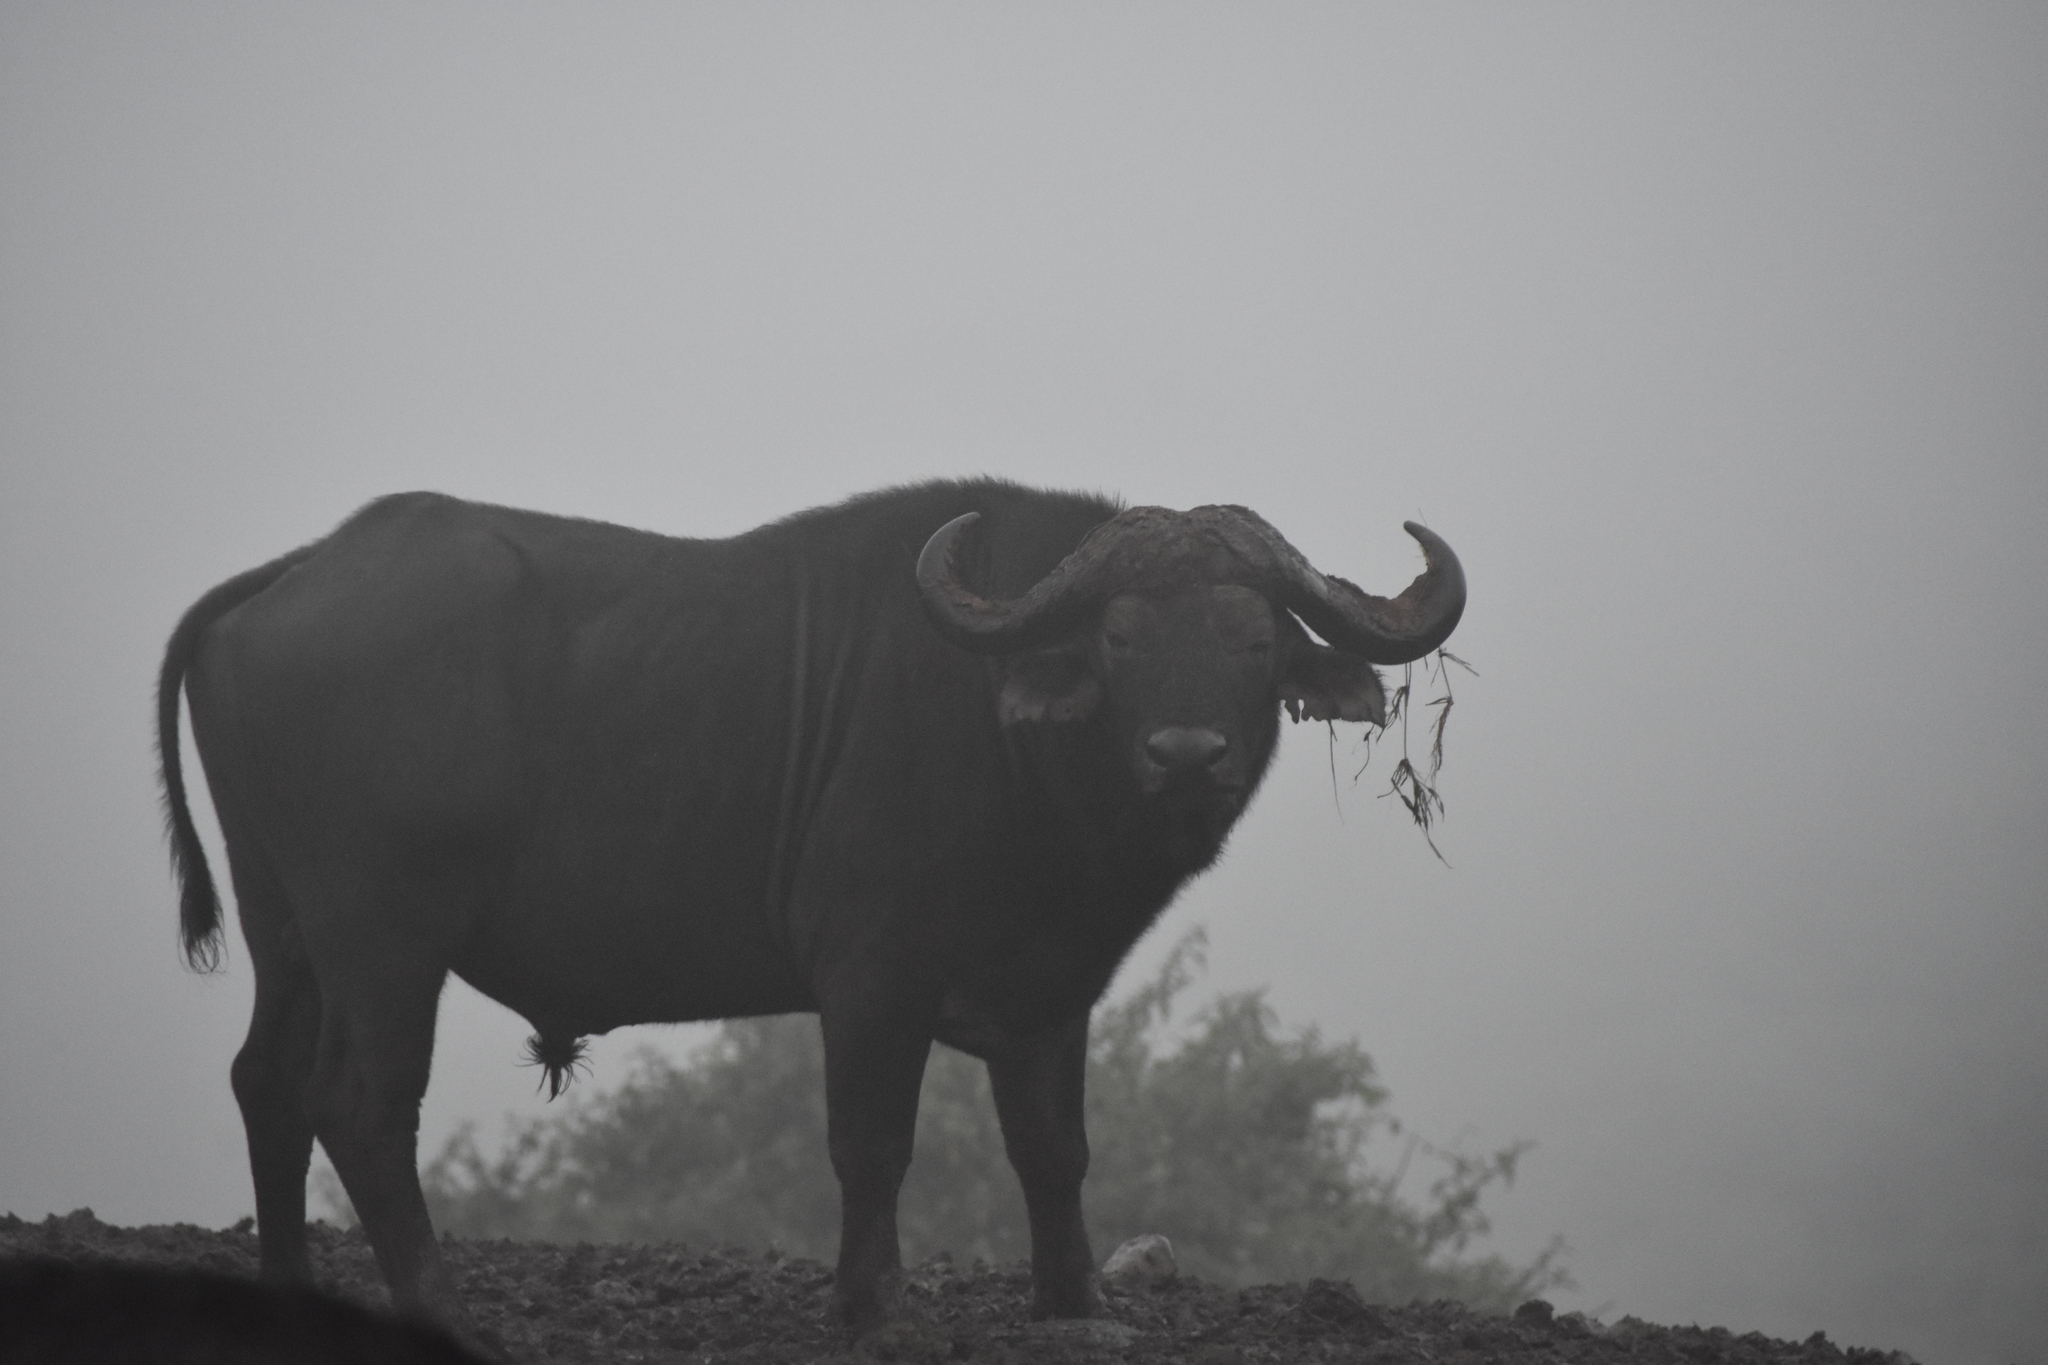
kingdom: Animalia
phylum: Chordata
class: Mammalia
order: Artiodactyla
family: Bovidae
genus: Syncerus
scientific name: Syncerus caffer
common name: African buffalo
